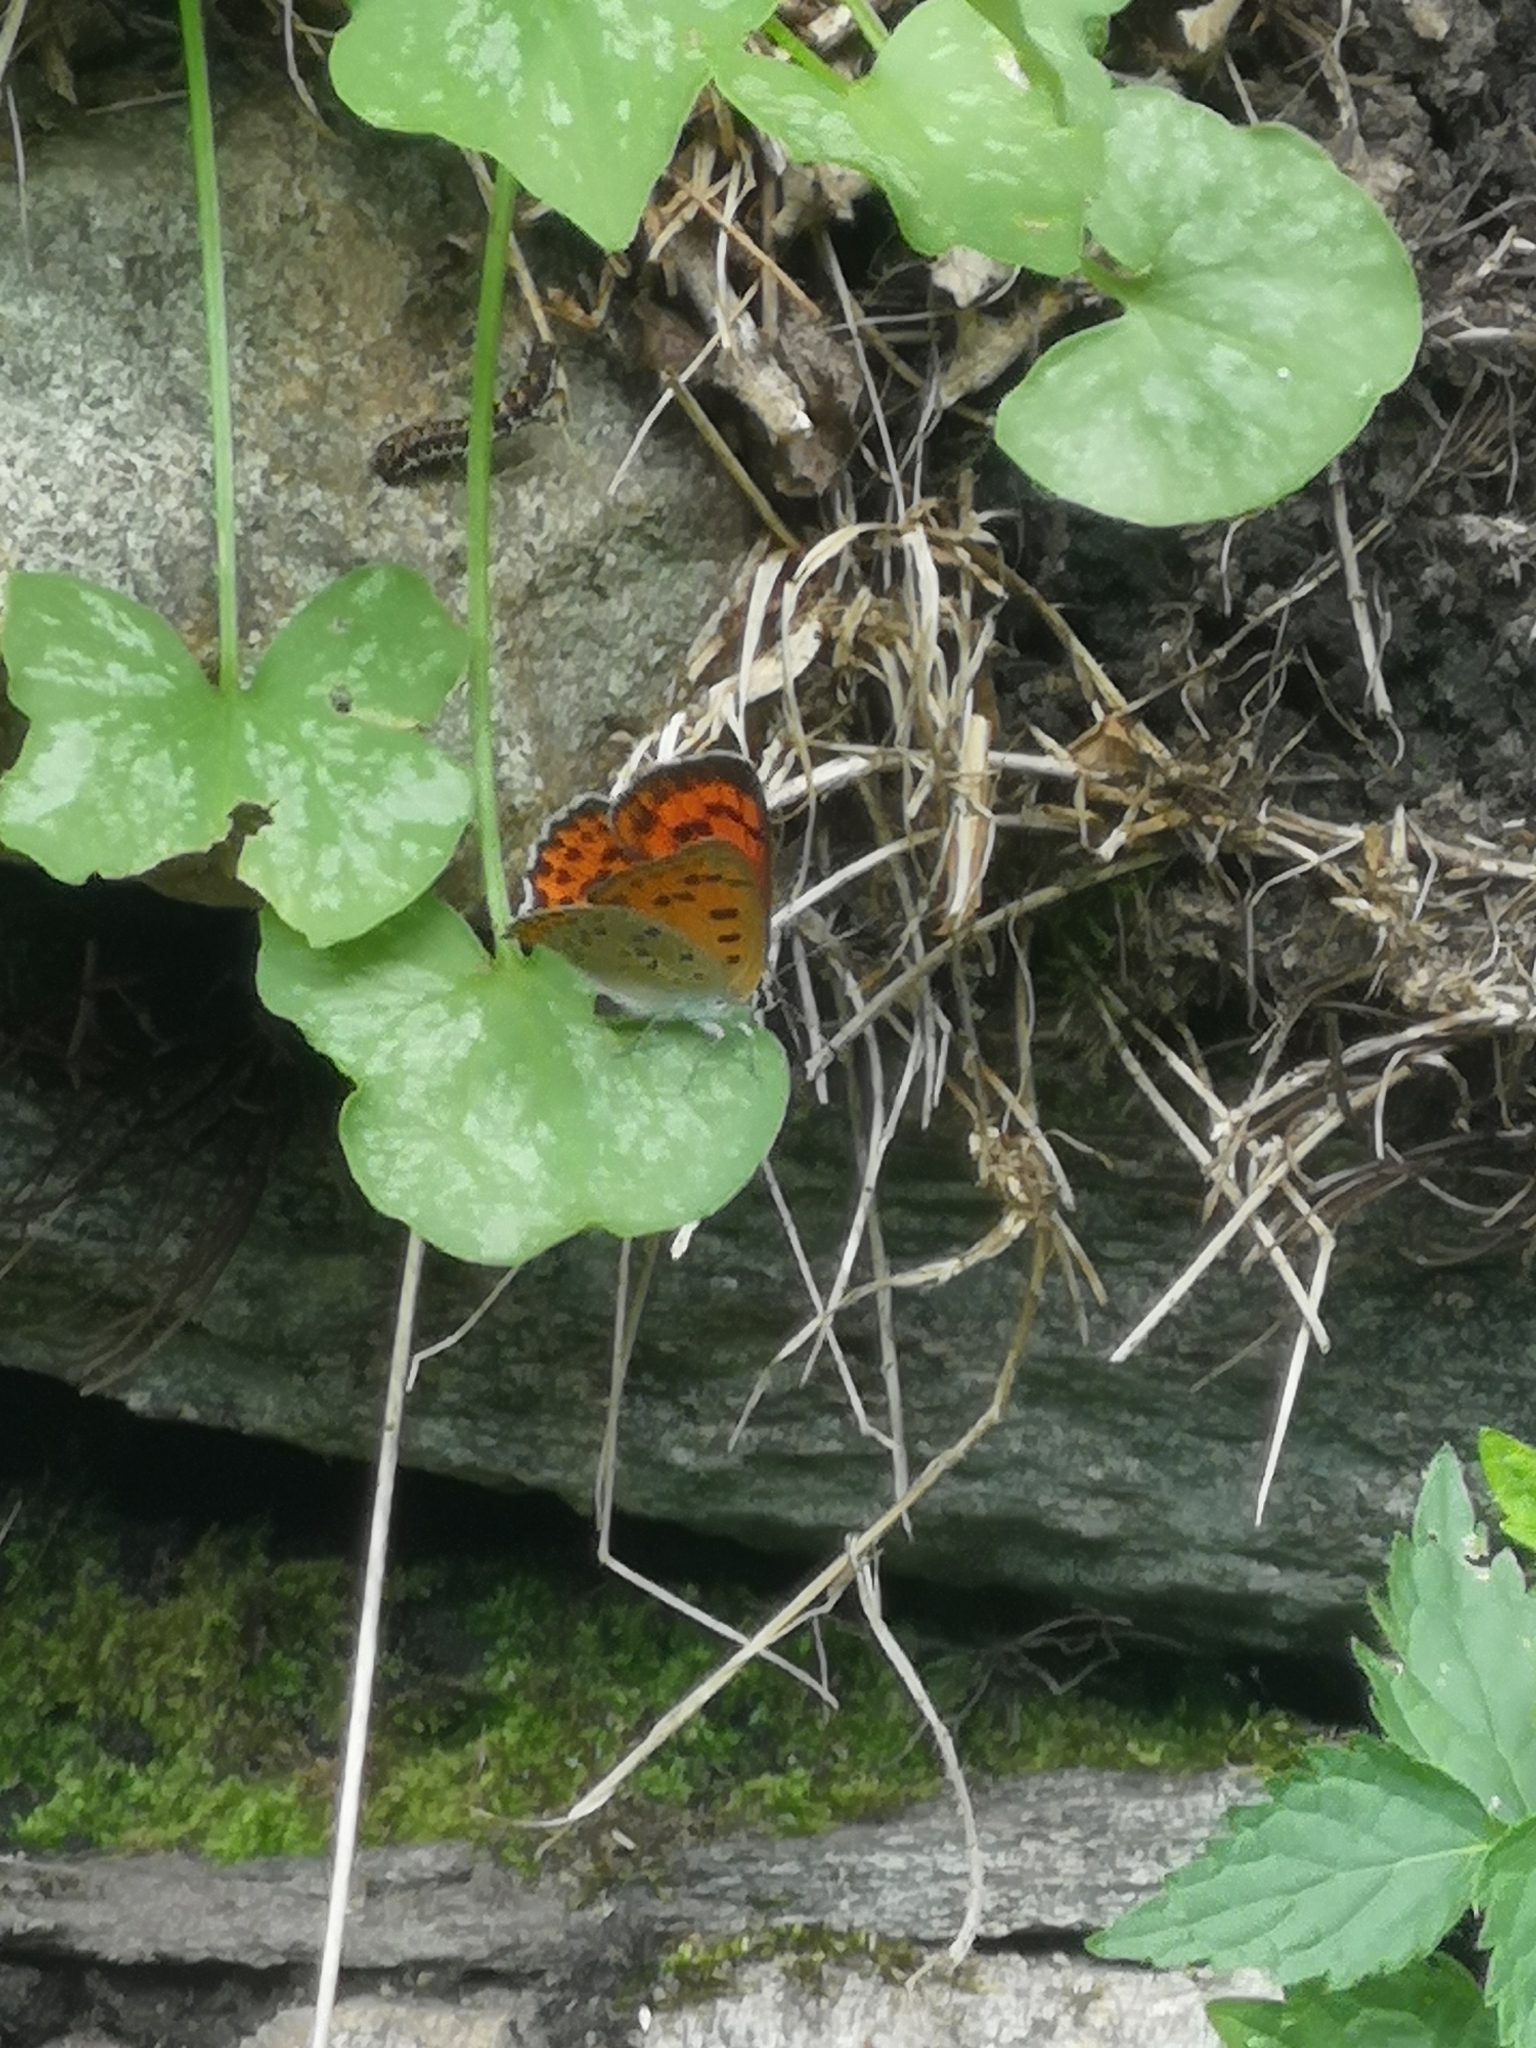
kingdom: Animalia
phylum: Arthropoda
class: Insecta
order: Lepidoptera
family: Lycaenidae
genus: Lycaena
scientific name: Lycaena alciphron
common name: Purple-shot copper
